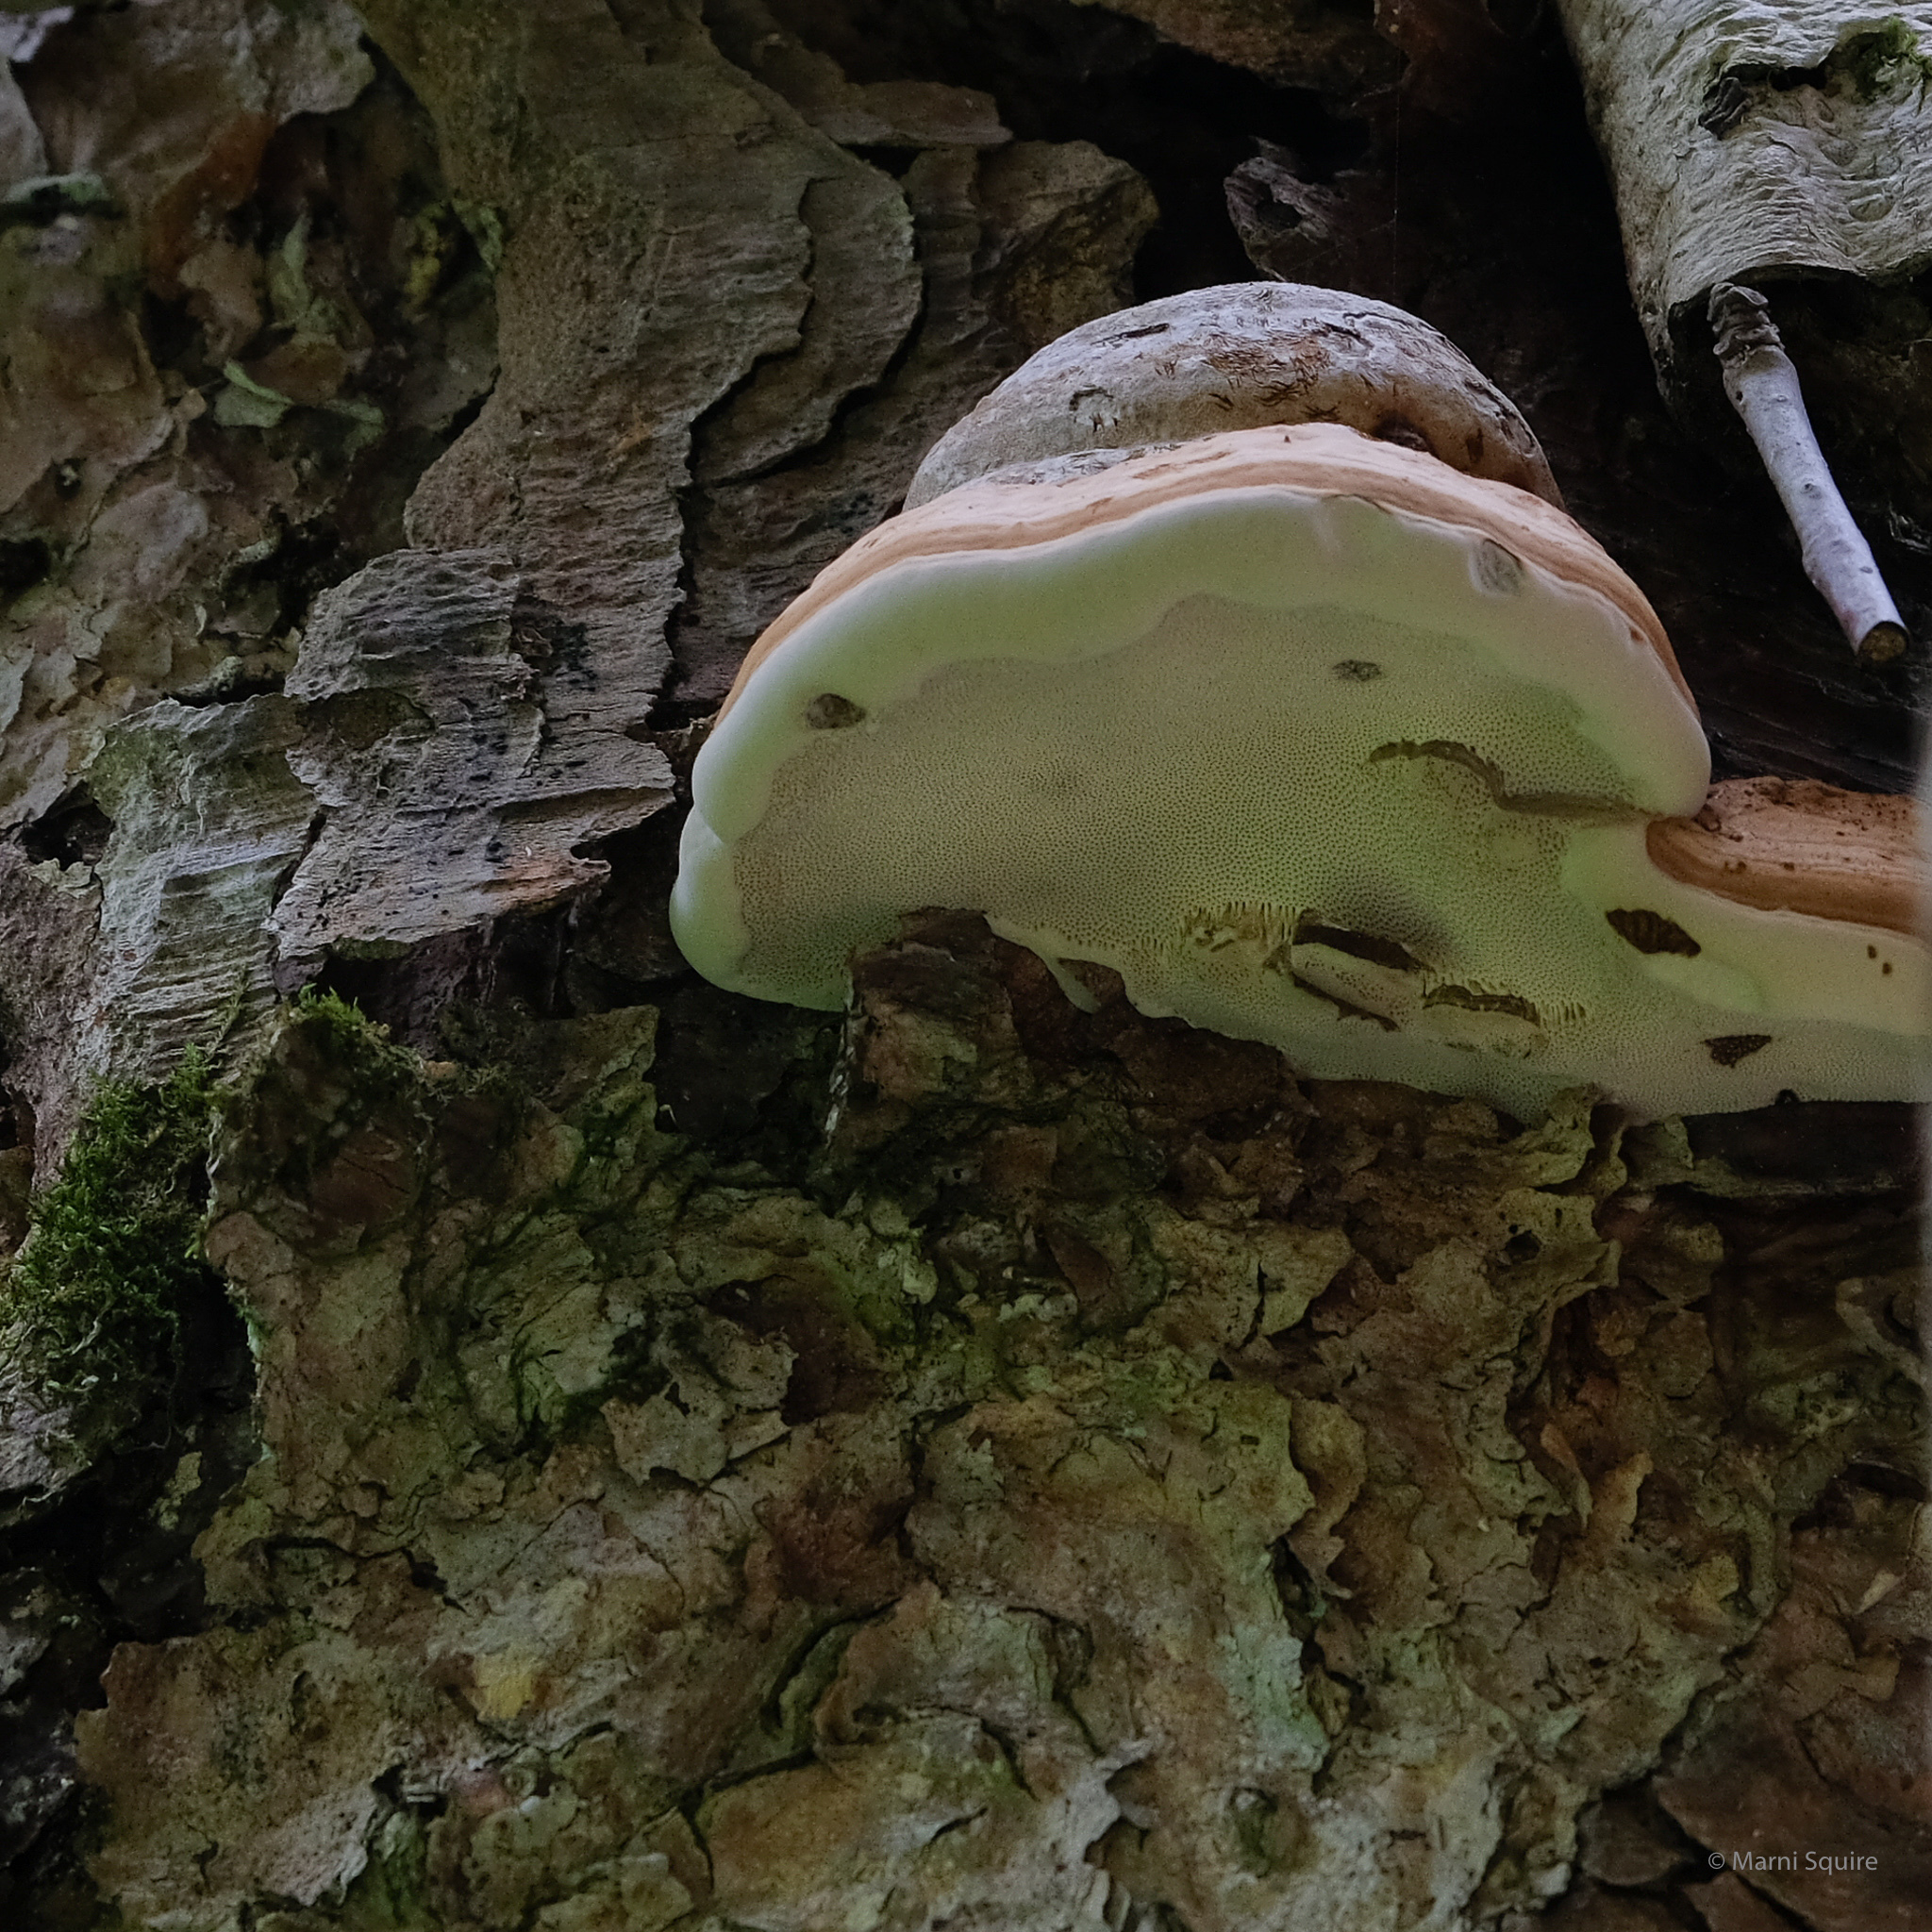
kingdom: Fungi
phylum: Basidiomycota
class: Agaricomycetes
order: Polyporales
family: Polyporaceae
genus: Fomes
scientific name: Fomes fomentarius
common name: Hoof fungus
